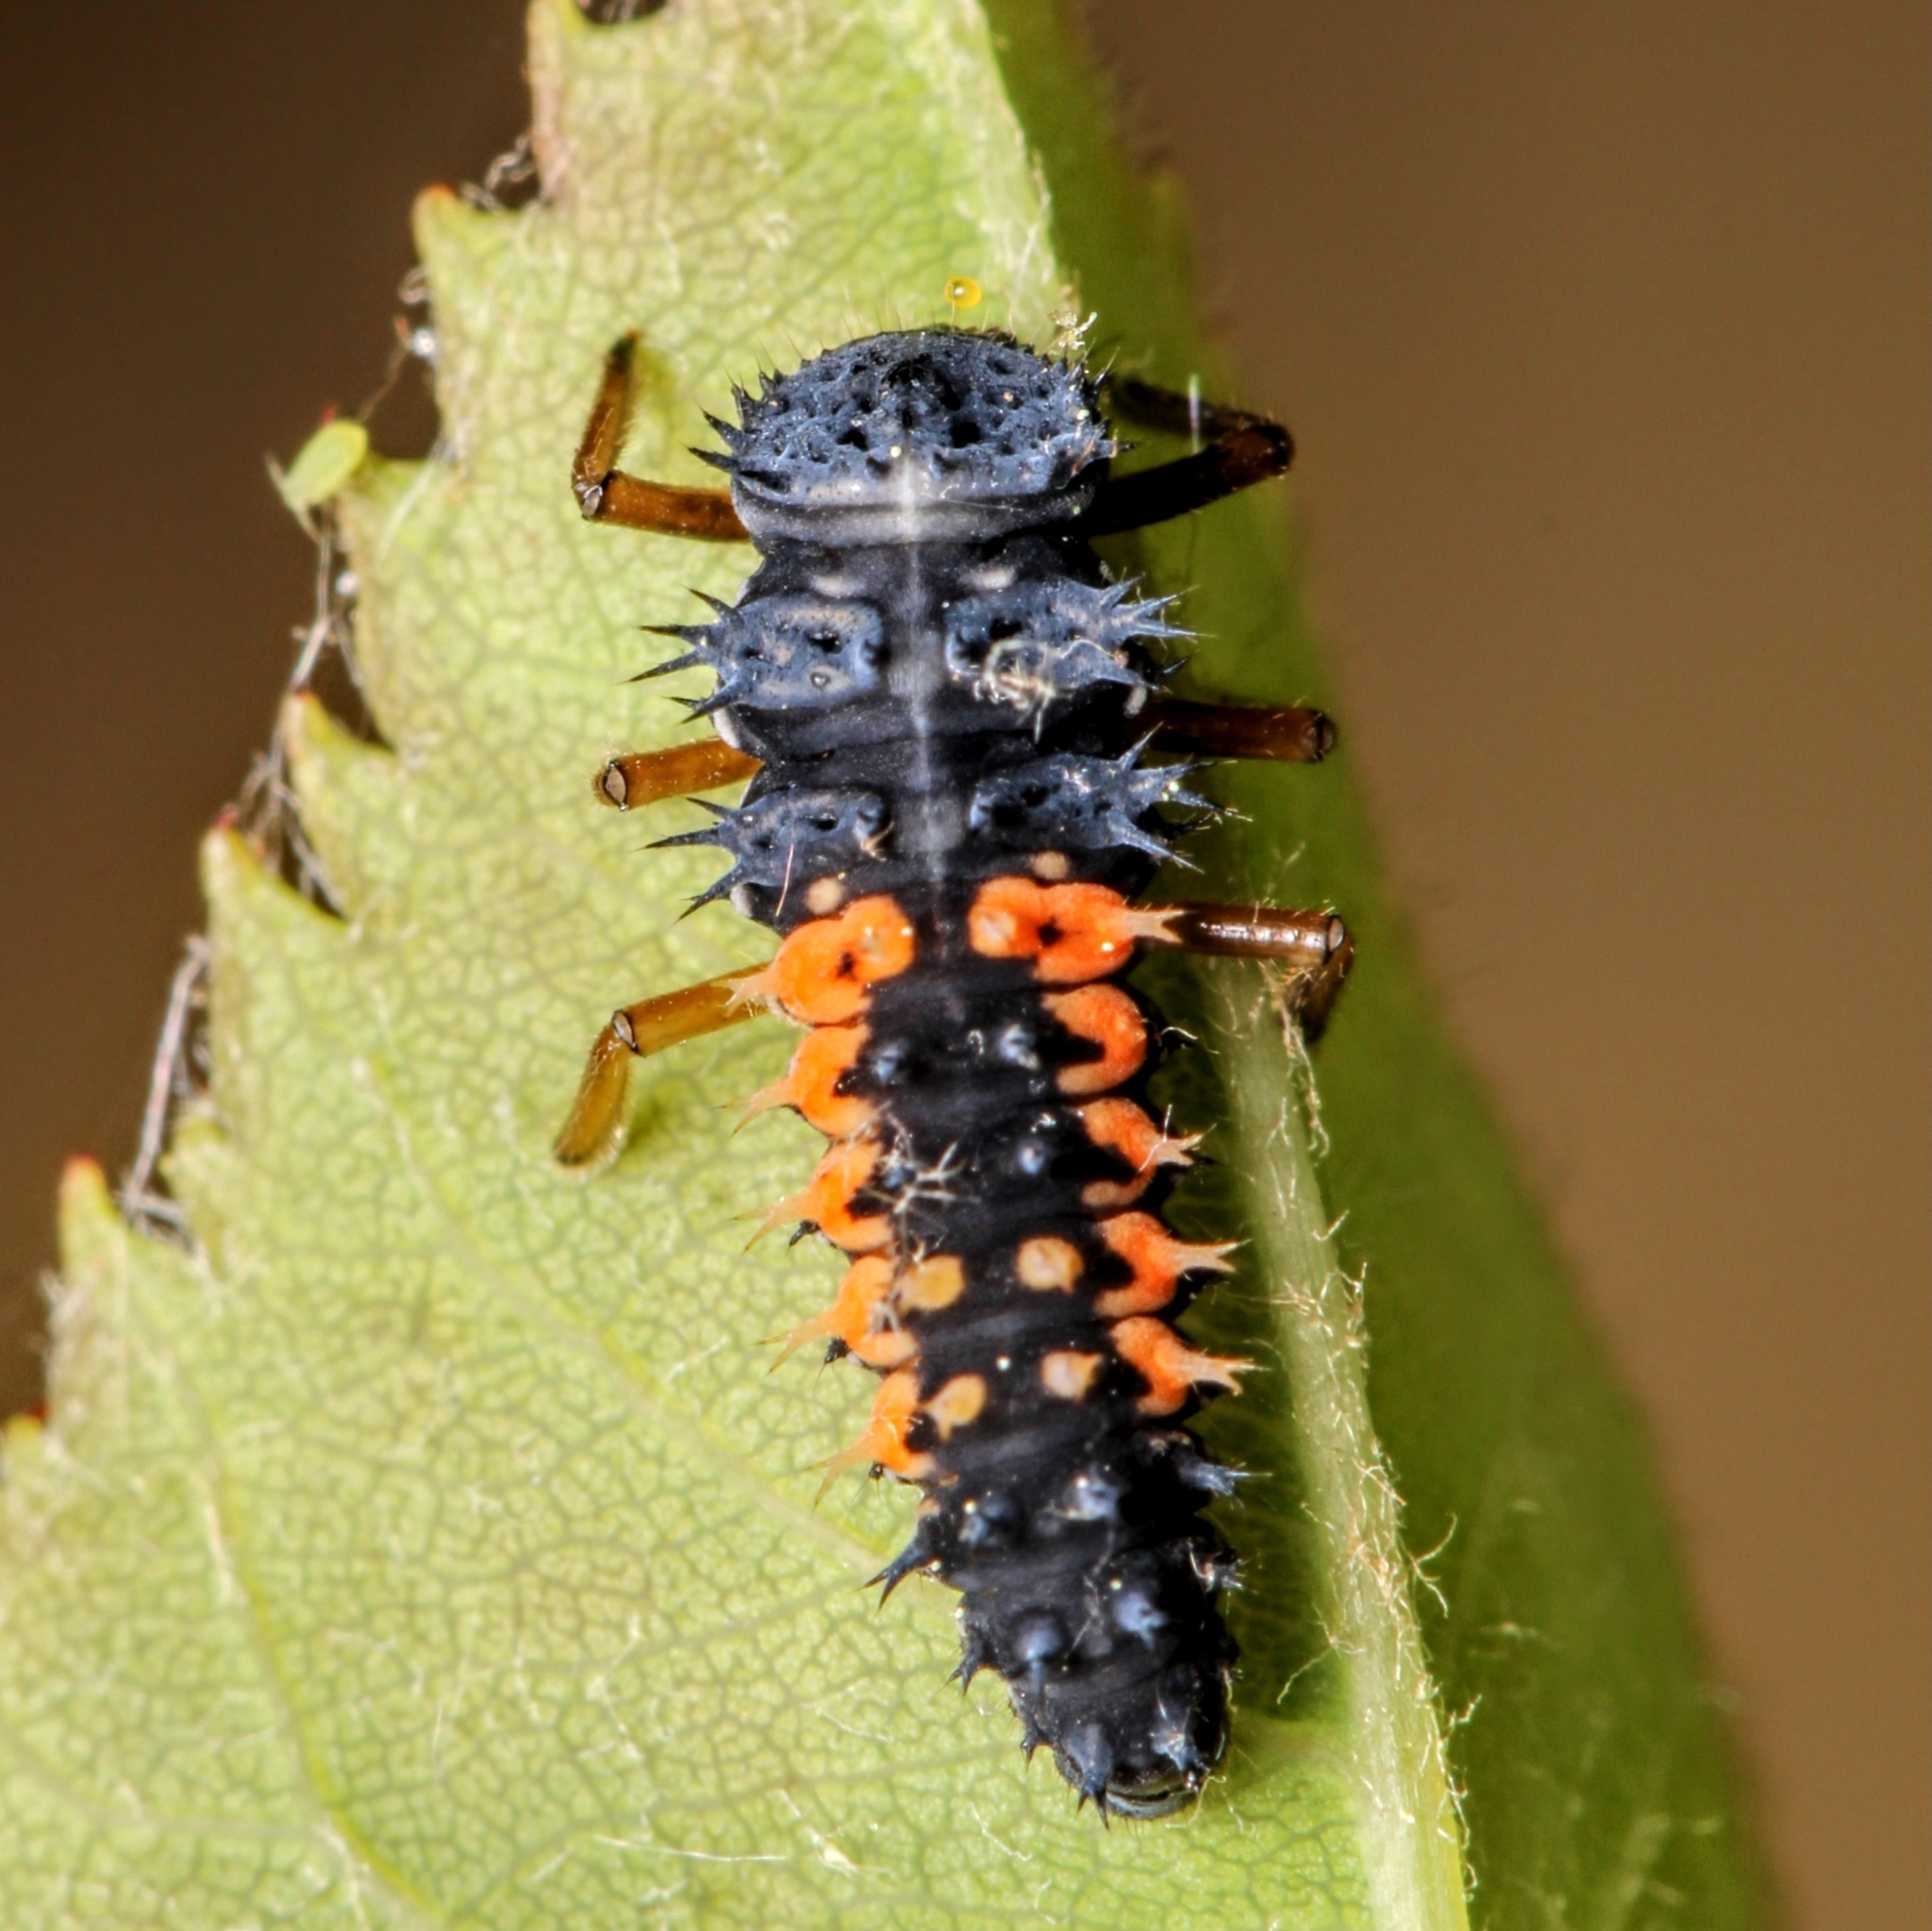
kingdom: Animalia
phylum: Arthropoda
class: Insecta
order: Coleoptera
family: Coccinellidae
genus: Harmonia
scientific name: Harmonia axyridis
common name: Harlequin ladybird
